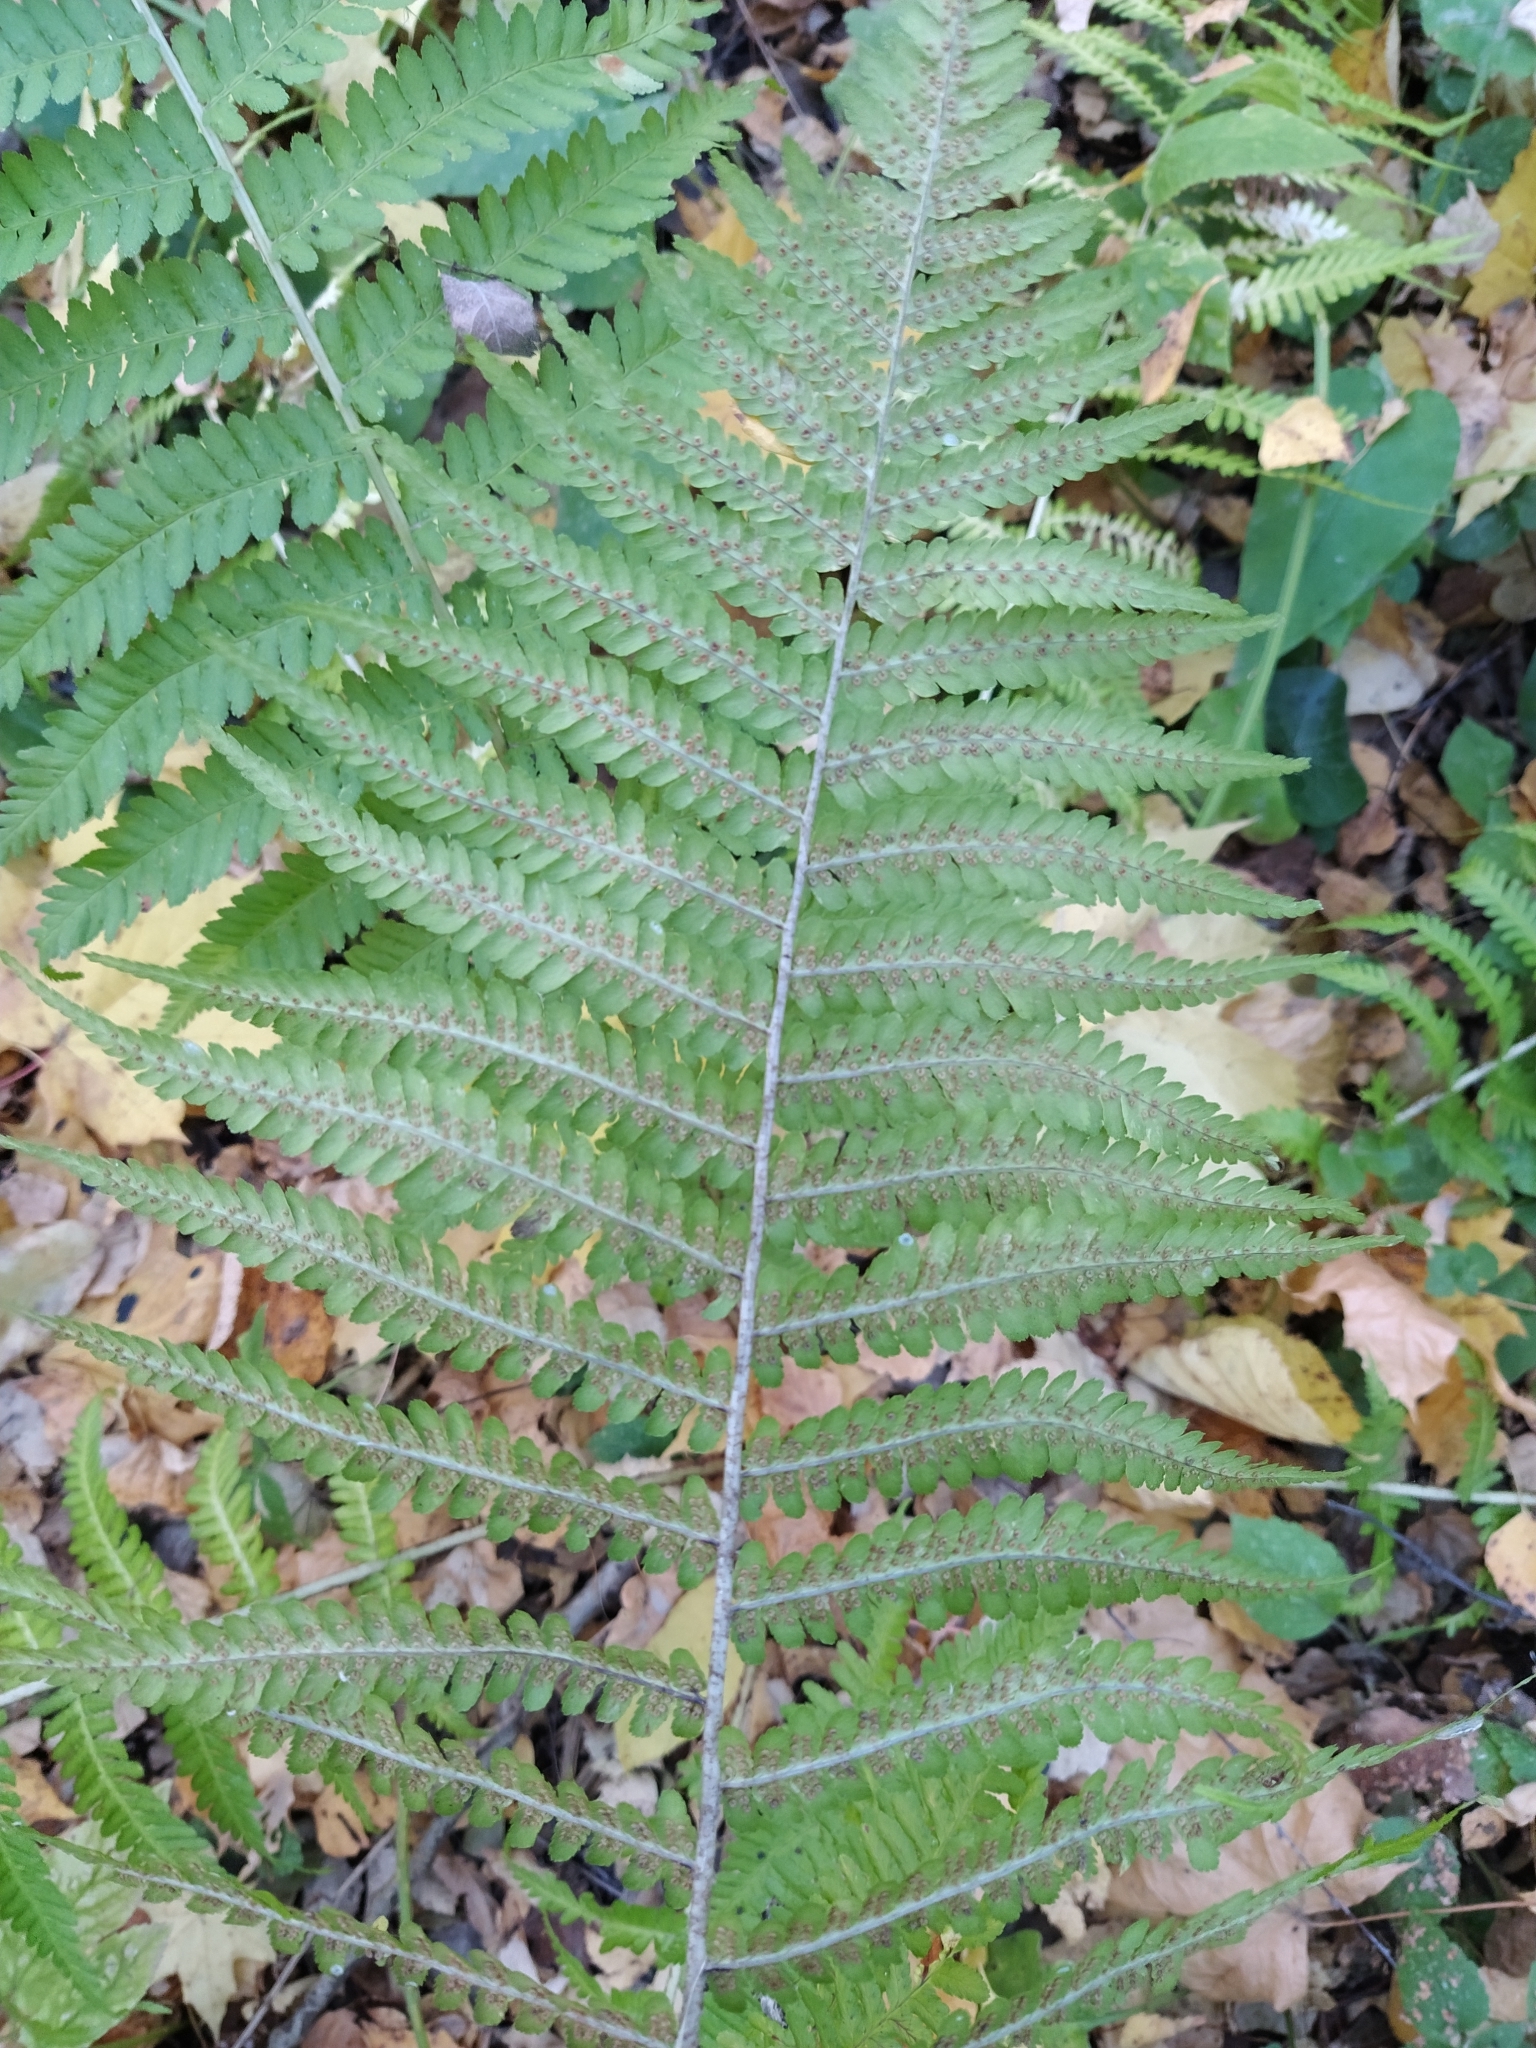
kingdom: Plantae
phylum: Tracheophyta
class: Polypodiopsida
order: Polypodiales
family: Dryopteridaceae
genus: Dryopteris
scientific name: Dryopteris filix-mas
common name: Male fern
